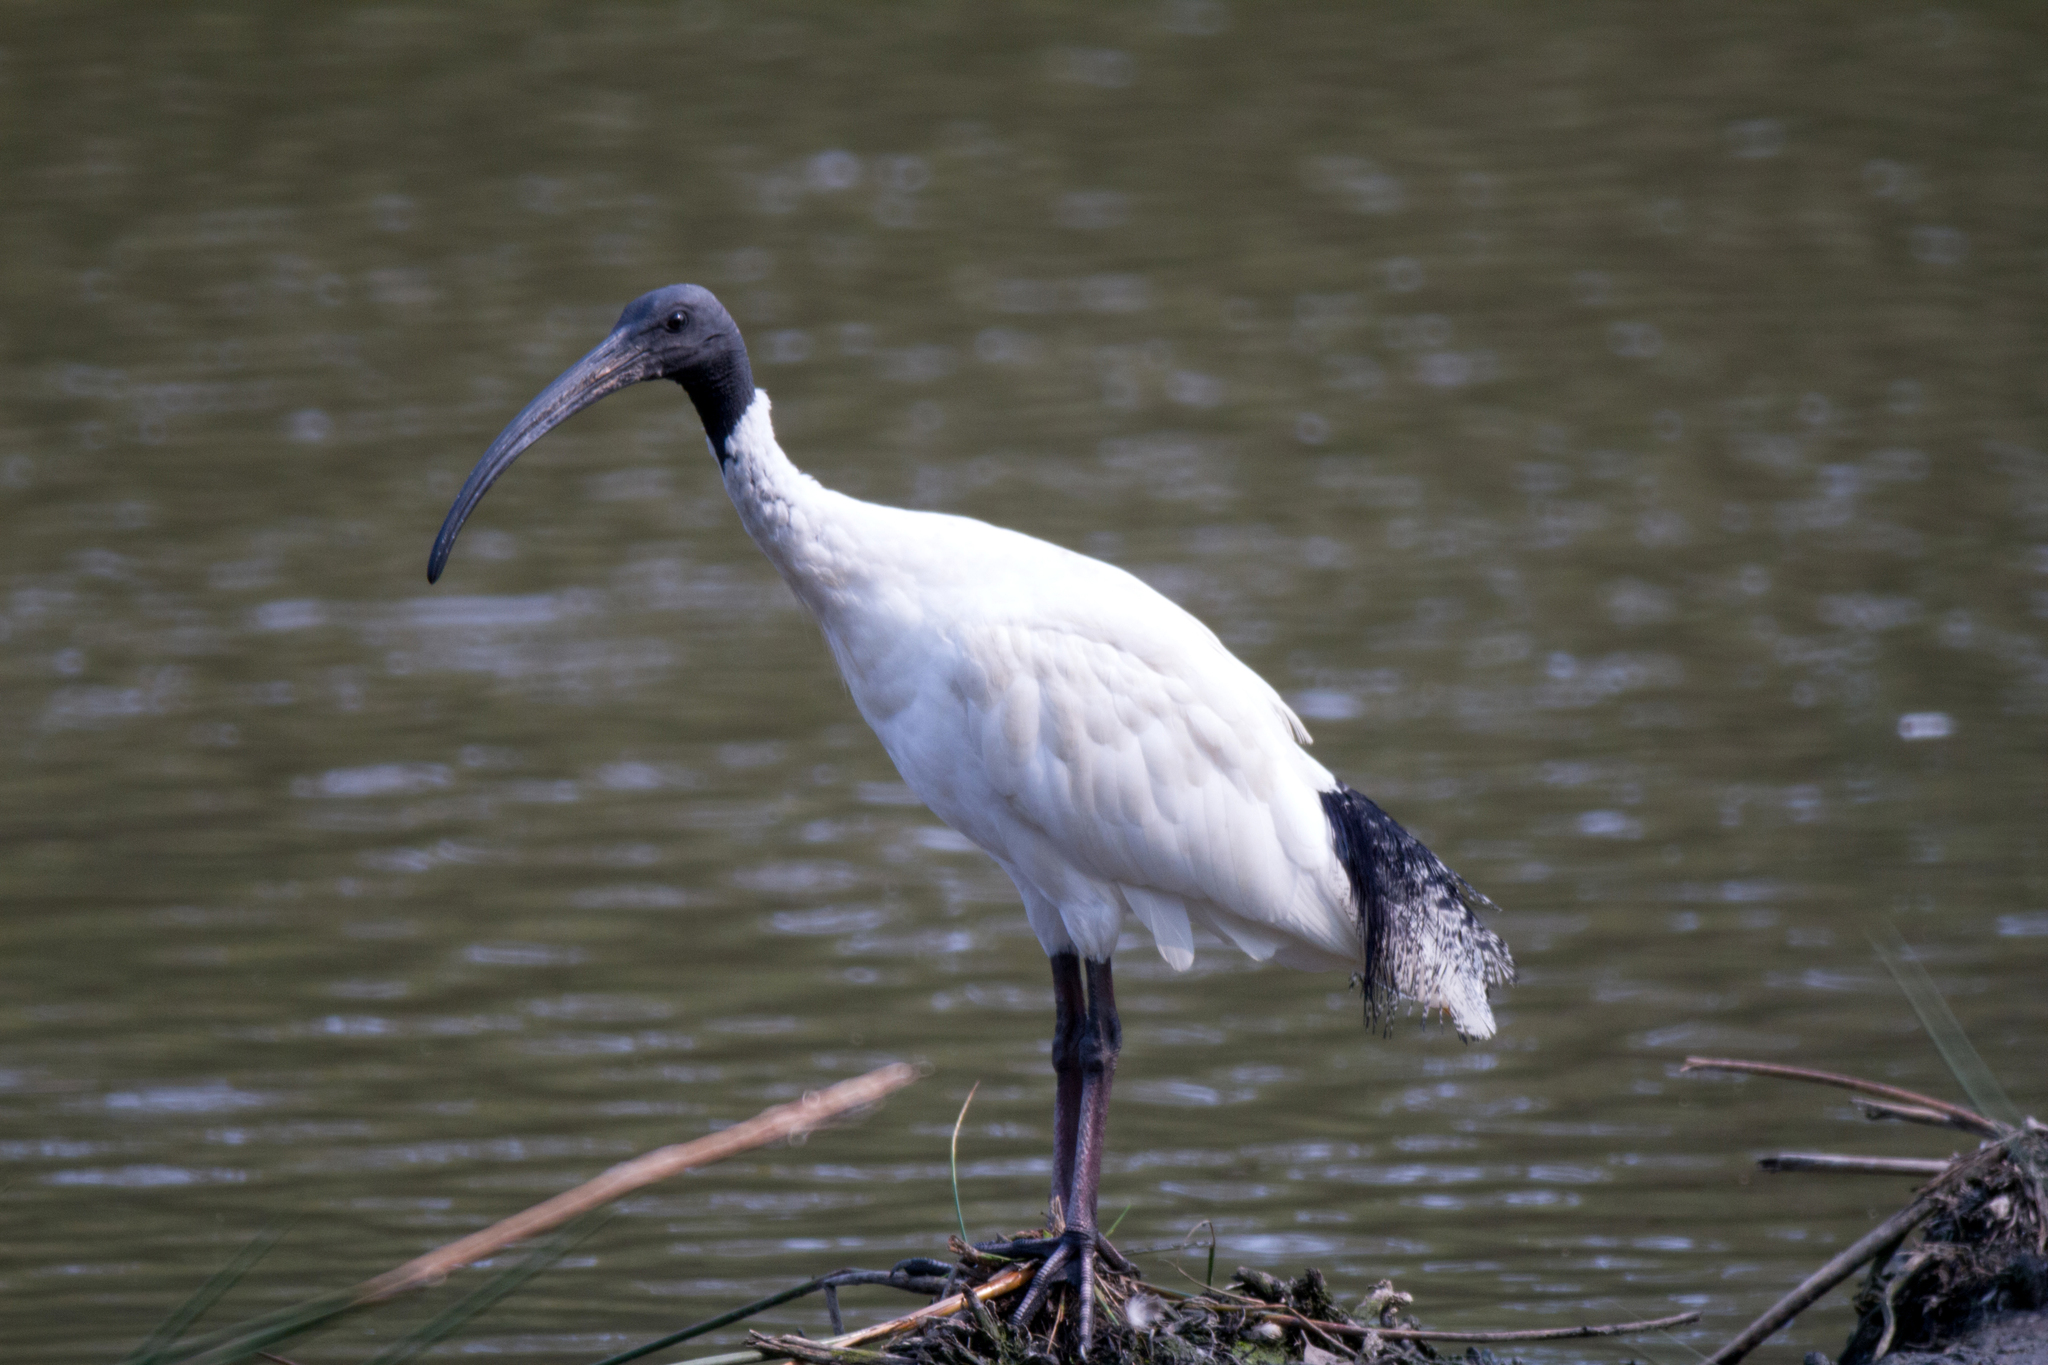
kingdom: Animalia
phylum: Chordata
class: Aves
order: Pelecaniformes
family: Threskiornithidae
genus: Threskiornis
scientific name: Threskiornis molucca
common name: Australian white ibis
